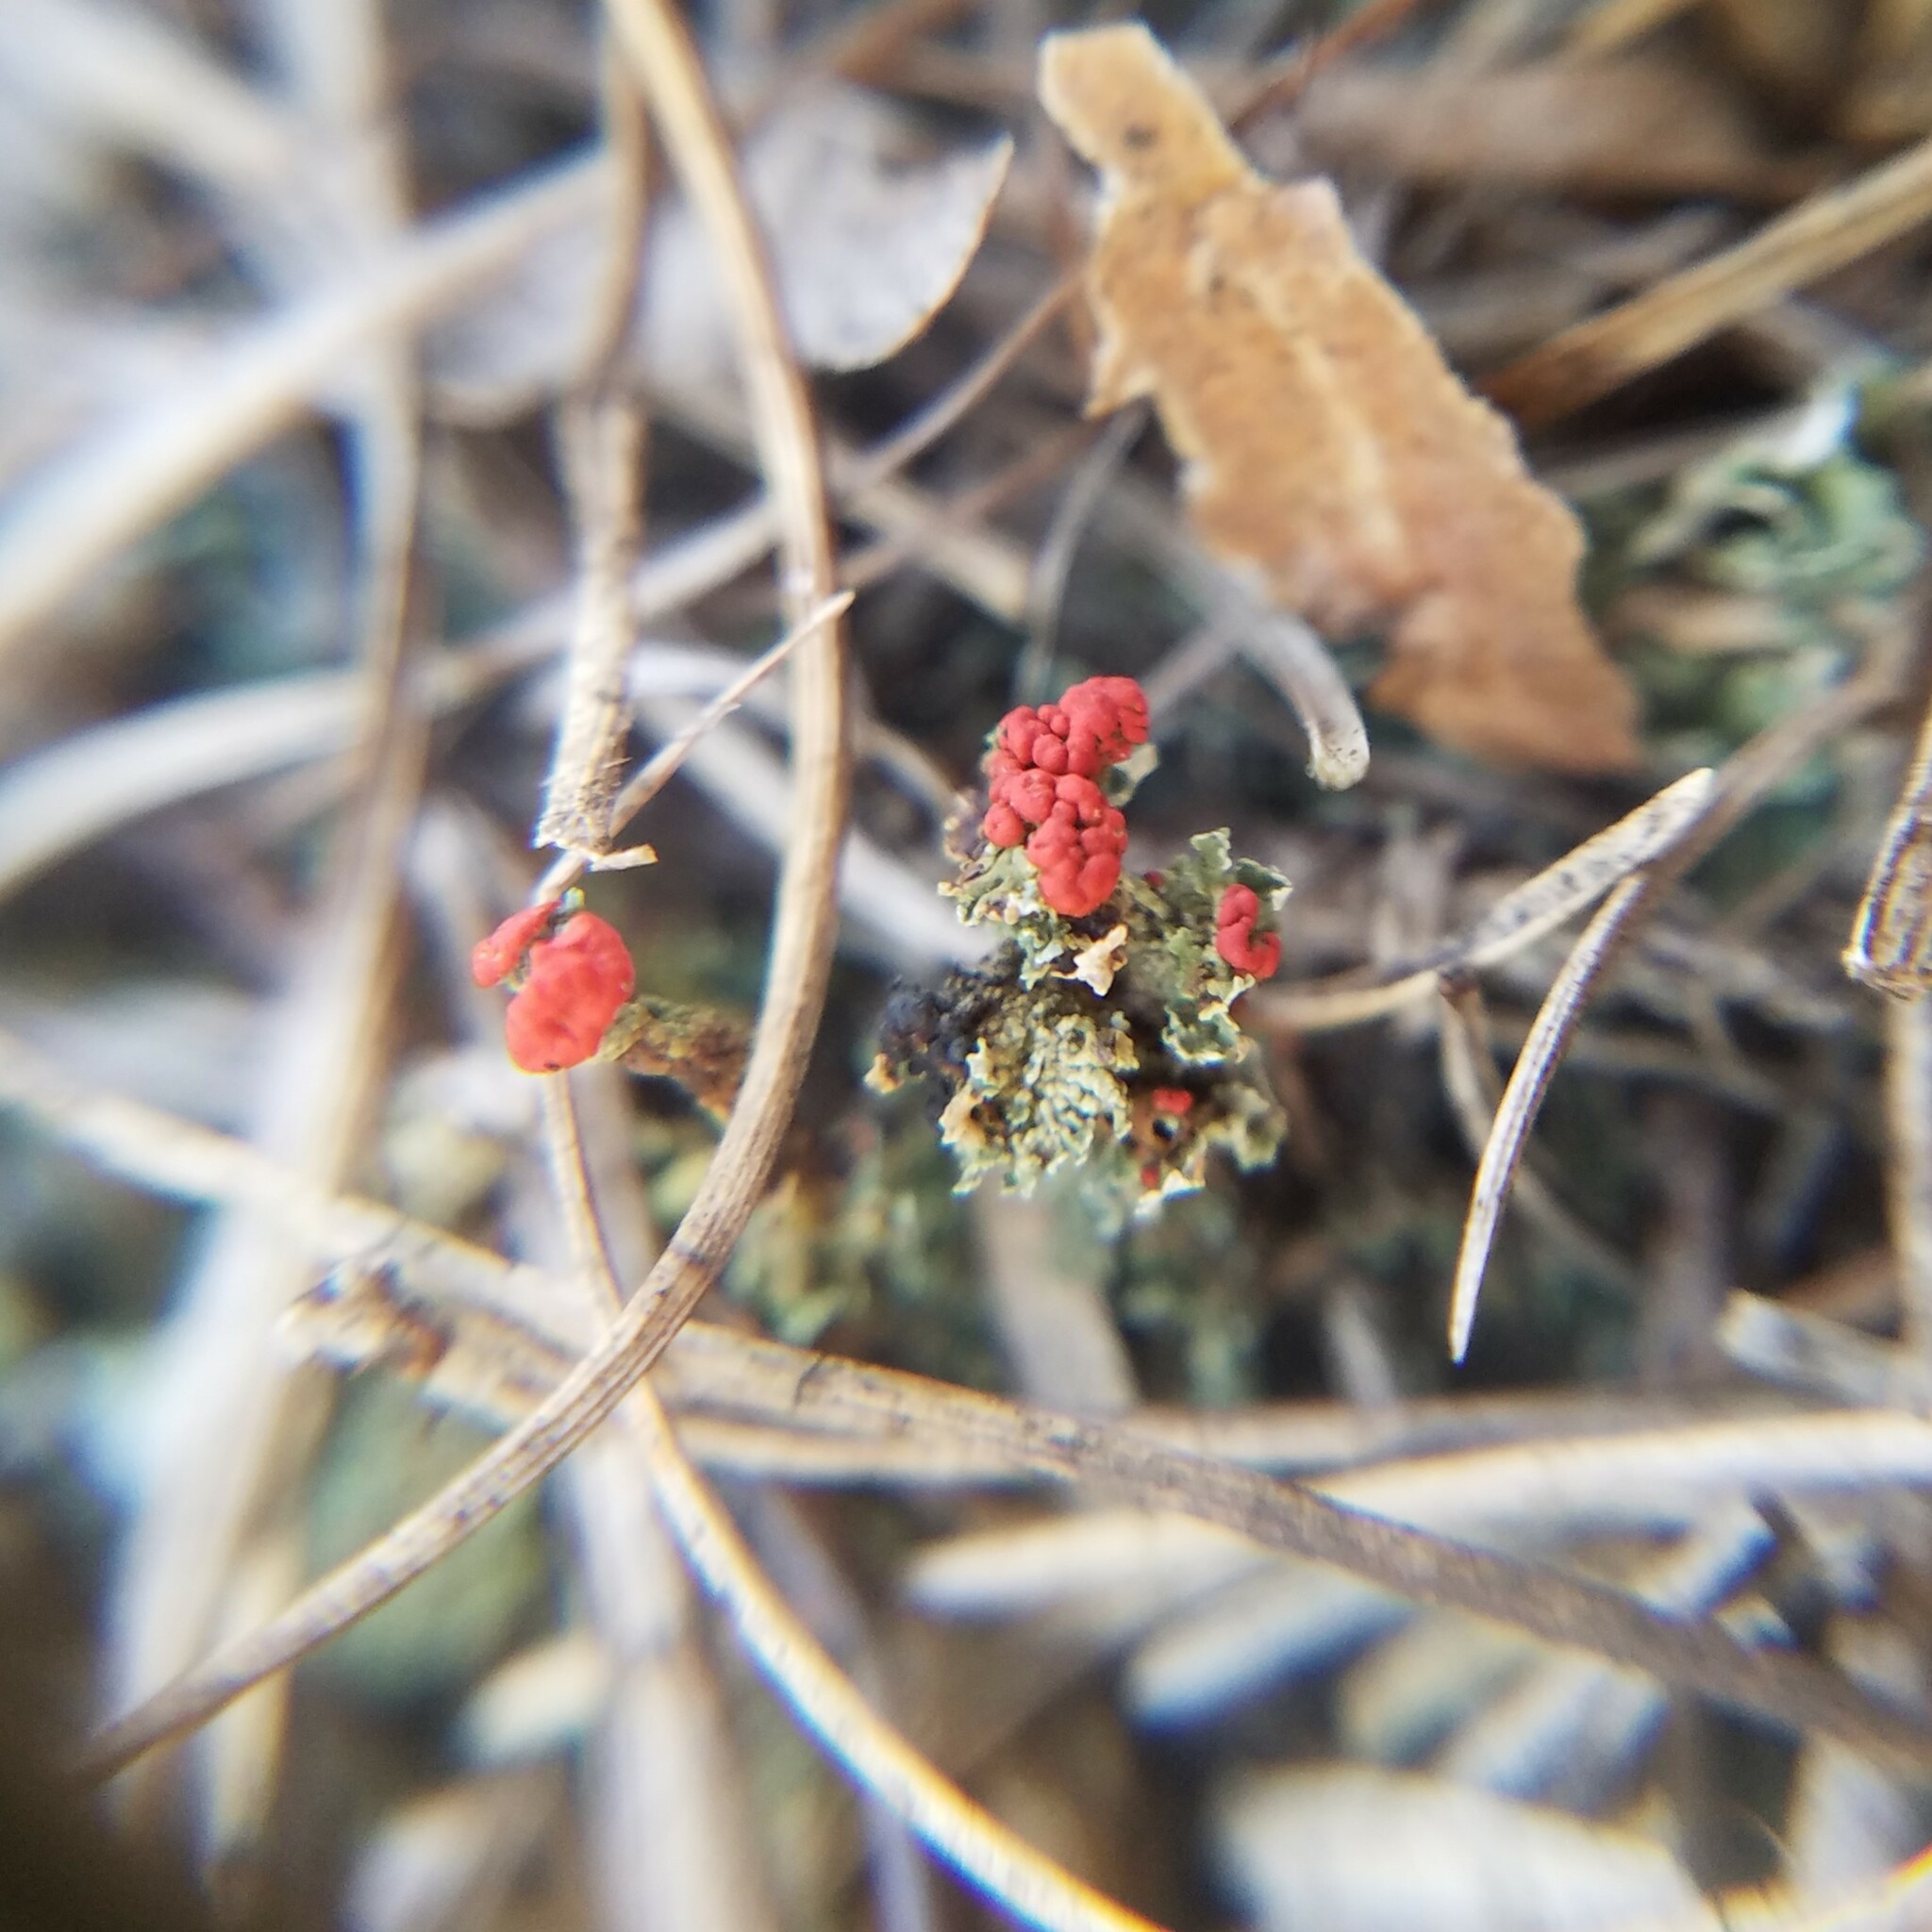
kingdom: Fungi
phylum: Ascomycota
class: Lecanoromycetes
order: Lecanorales
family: Cladoniaceae
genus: Cladonia
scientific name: Cladonia cristatella
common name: British soldier lichen
